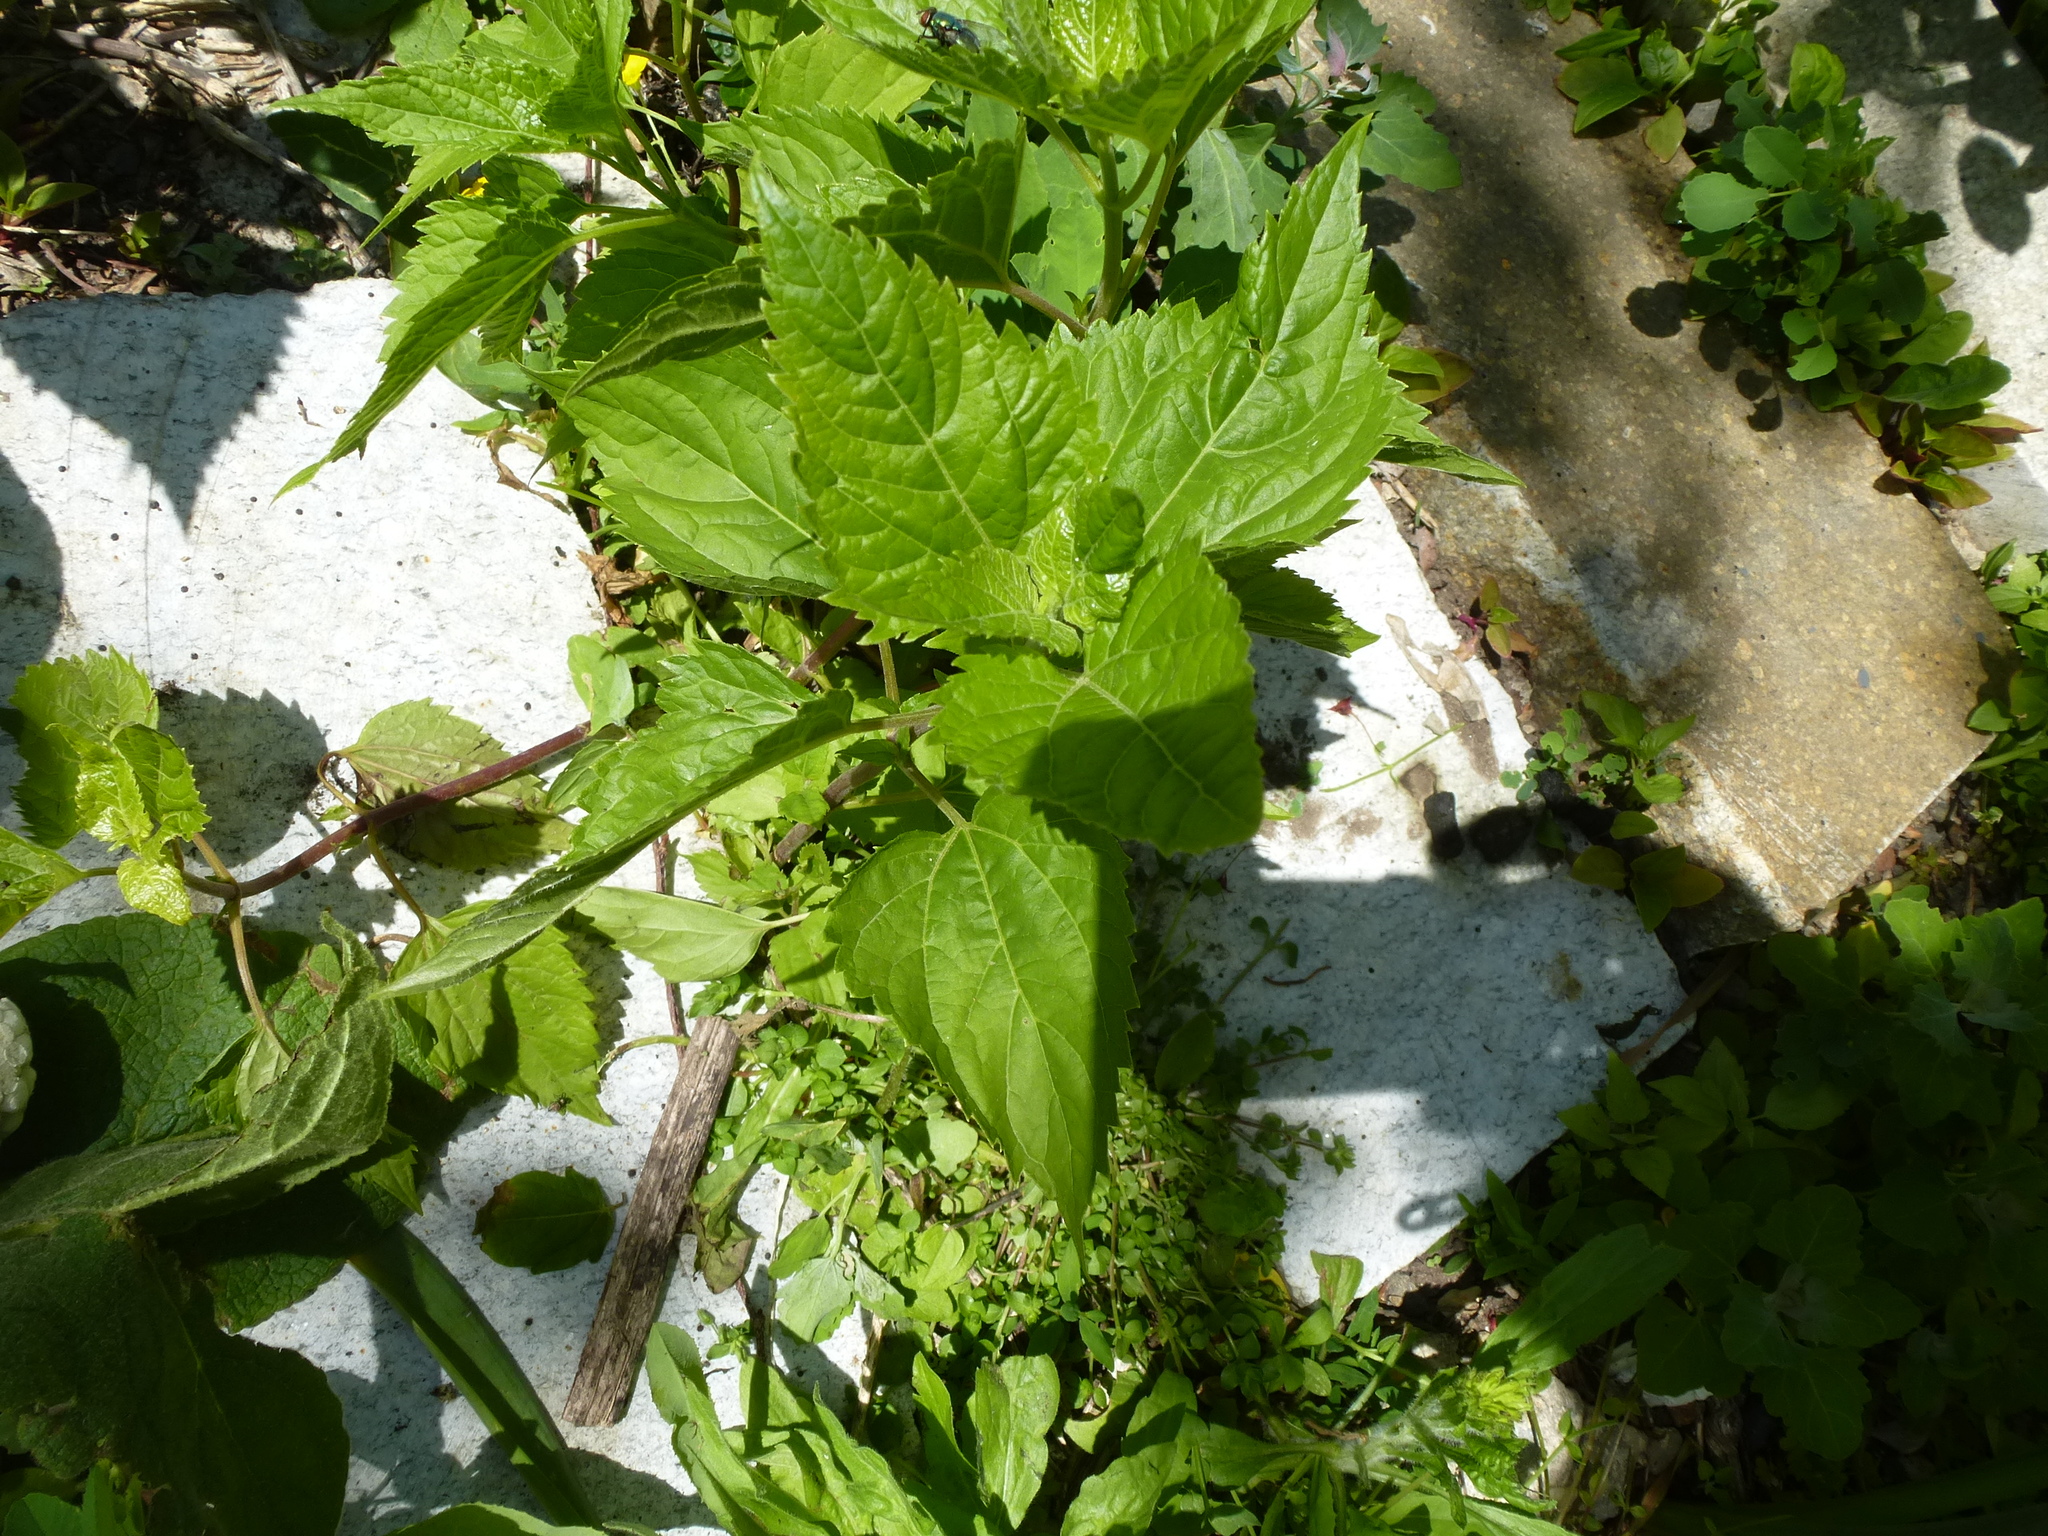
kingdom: Plantae
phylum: Tracheophyta
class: Magnoliopsida
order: Asterales
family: Asteraceae
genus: Ageratina
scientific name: Ageratina altissima
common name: White snakeroot
